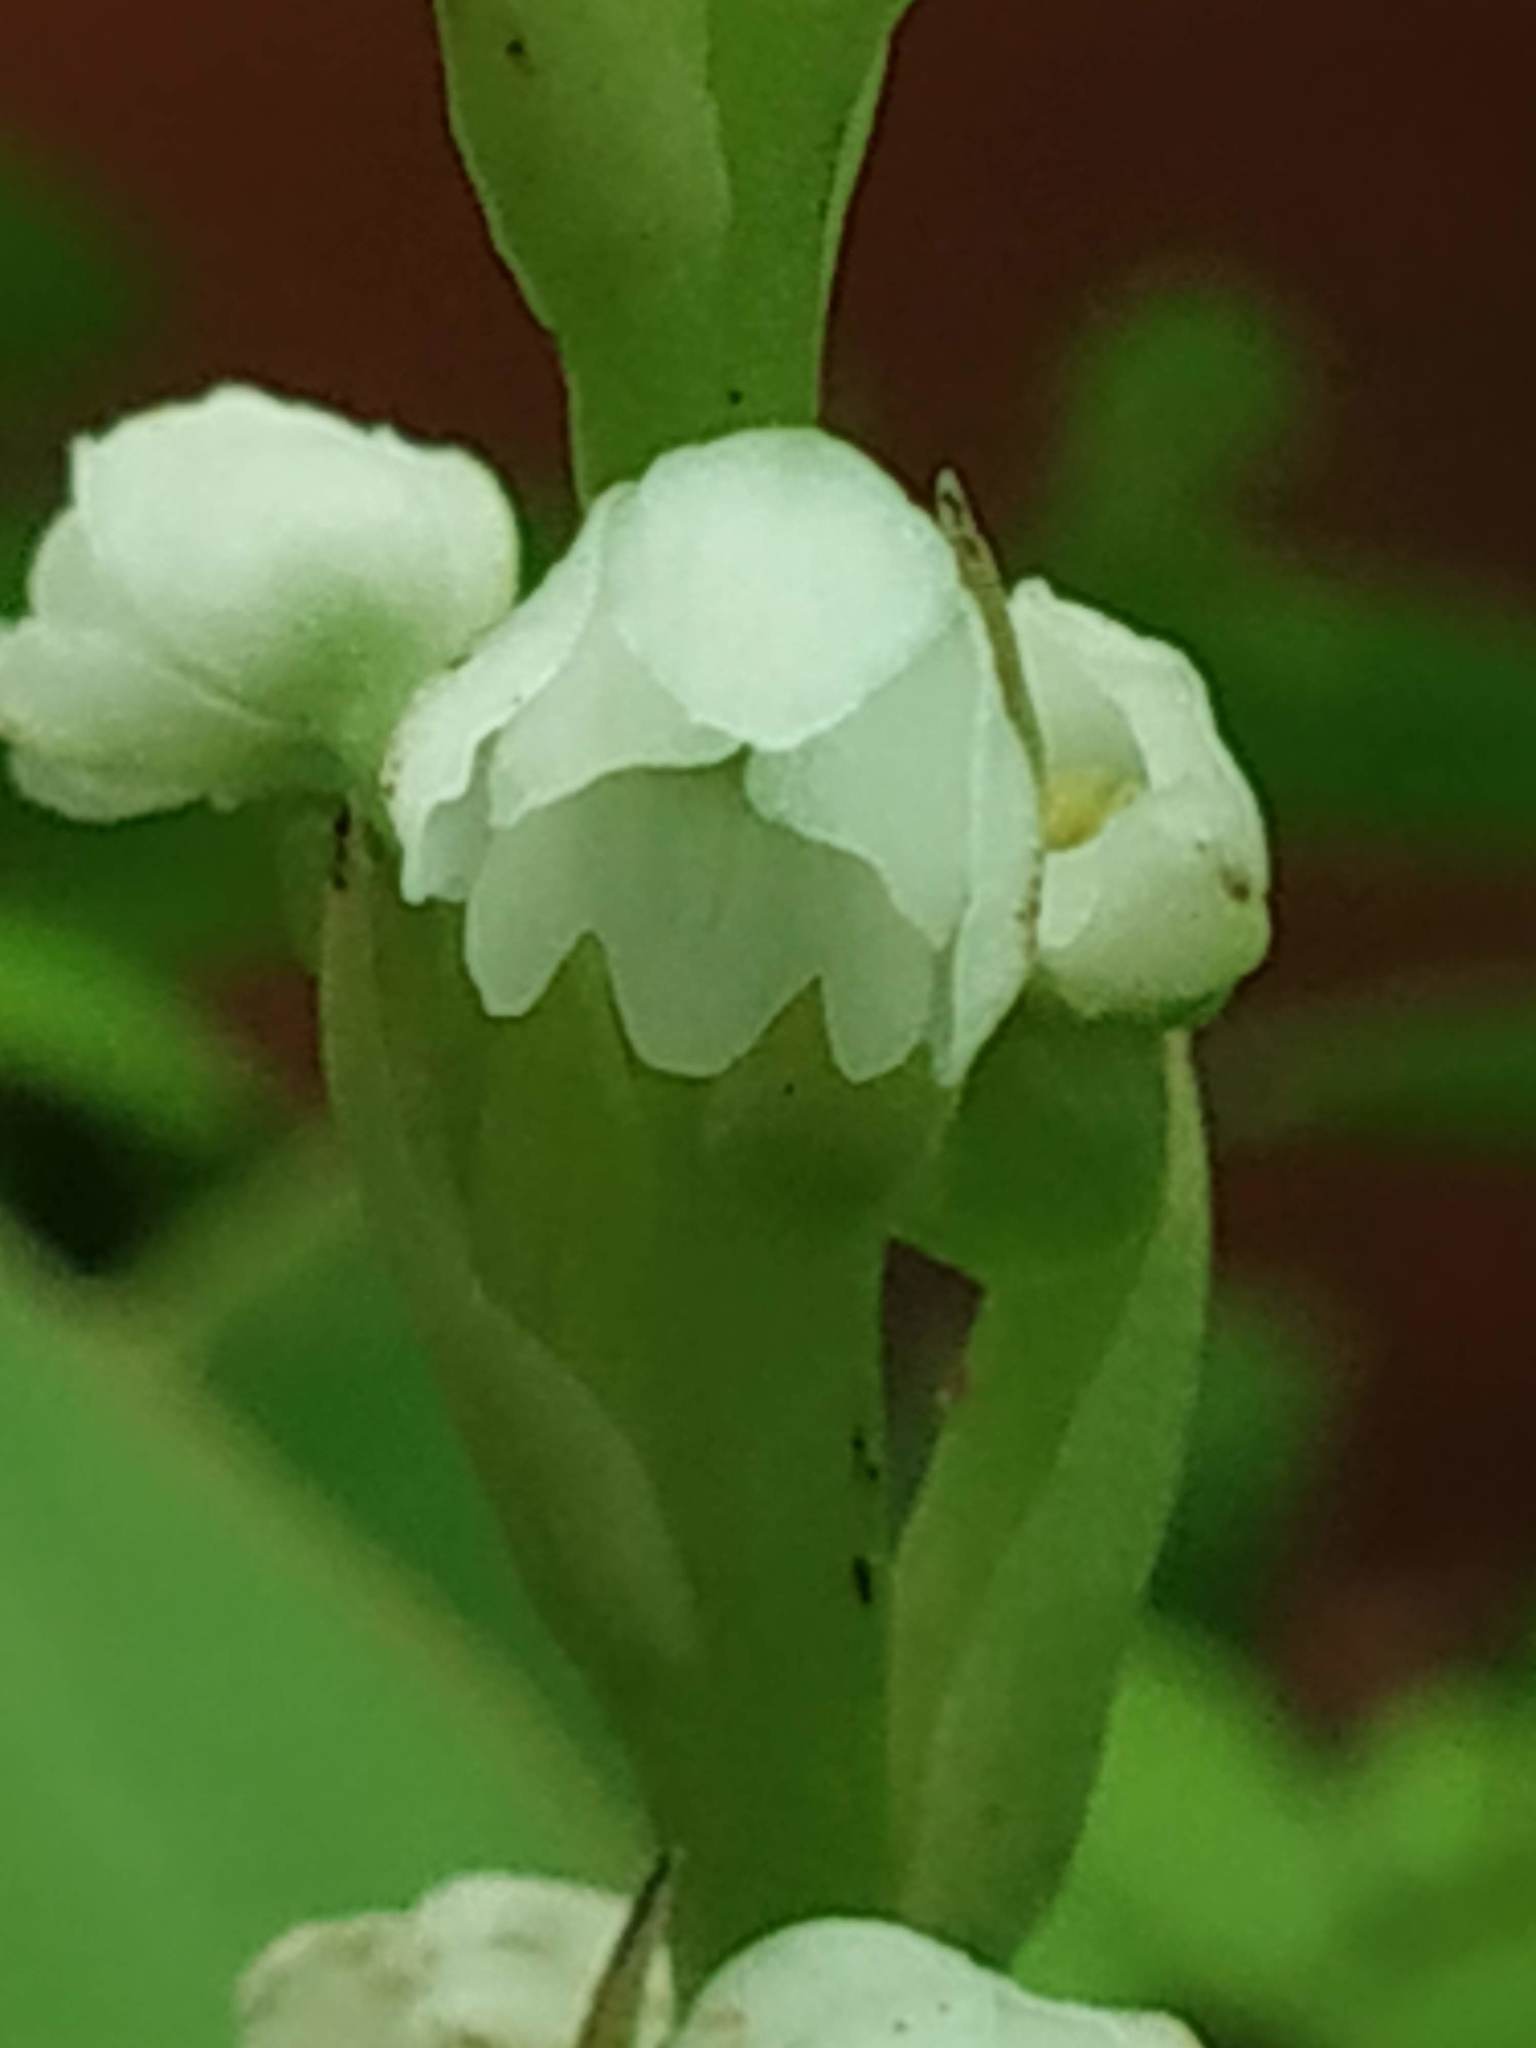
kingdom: Plantae
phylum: Tracheophyta
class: Liliopsida
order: Asparagales
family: Orchidaceae
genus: Peristylus
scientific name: Peristylus lawii
